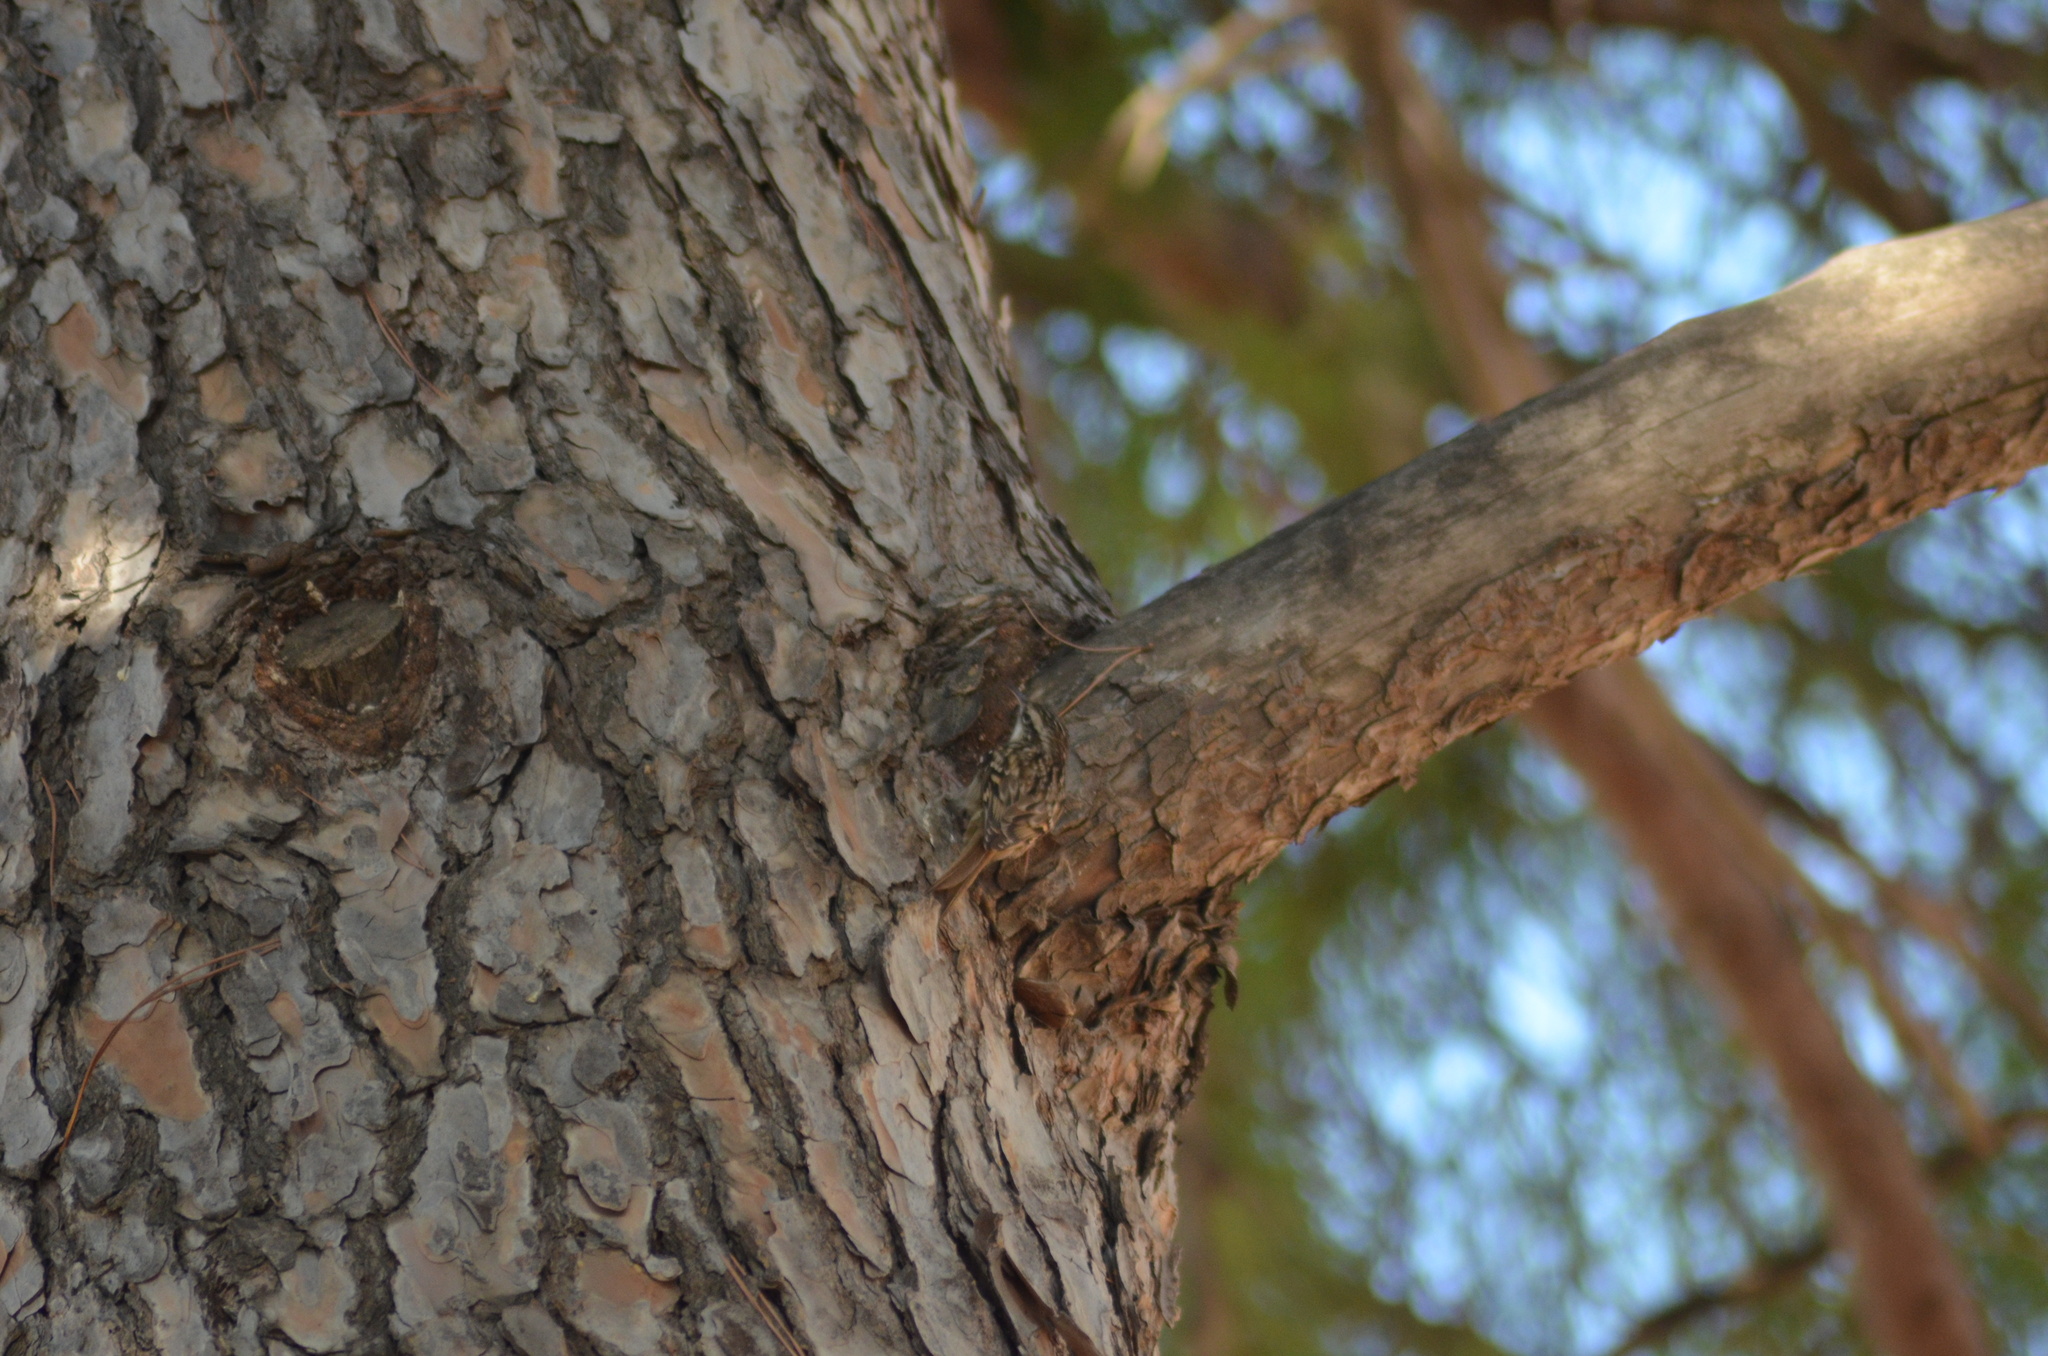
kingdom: Animalia
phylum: Chordata
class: Aves
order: Passeriformes
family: Certhiidae
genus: Certhia
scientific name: Certhia brachydactyla
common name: Short-toed treecreeper
